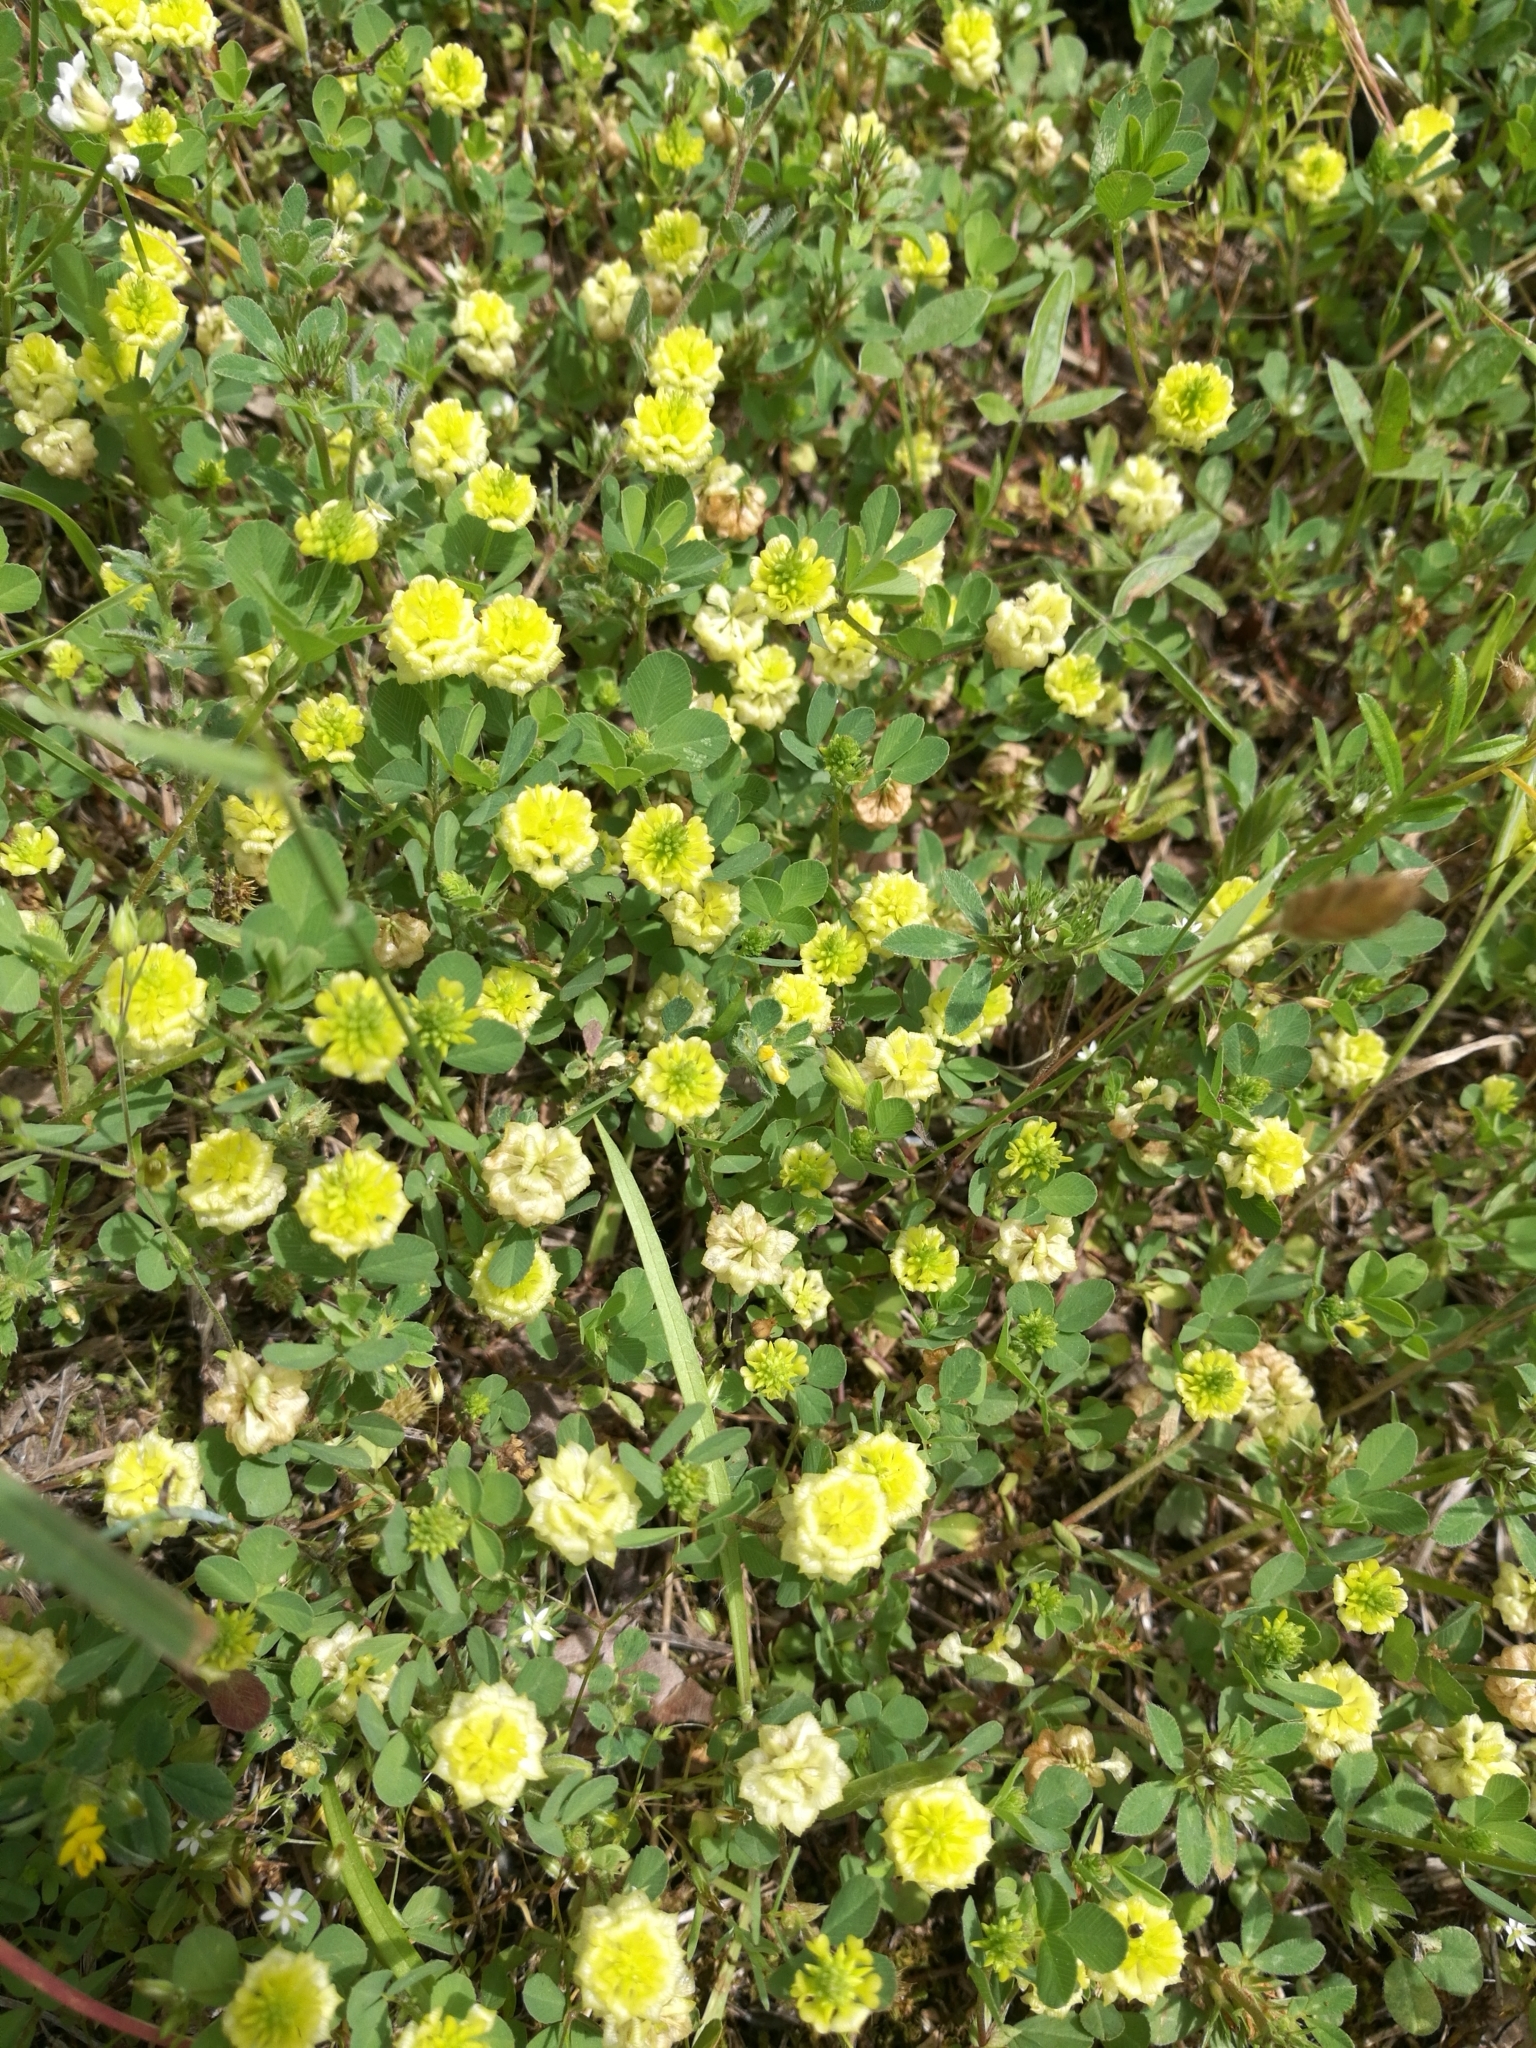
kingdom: Plantae
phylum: Tracheophyta
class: Magnoliopsida
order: Fabales
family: Fabaceae
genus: Trifolium
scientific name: Trifolium campestre
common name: Field clover
